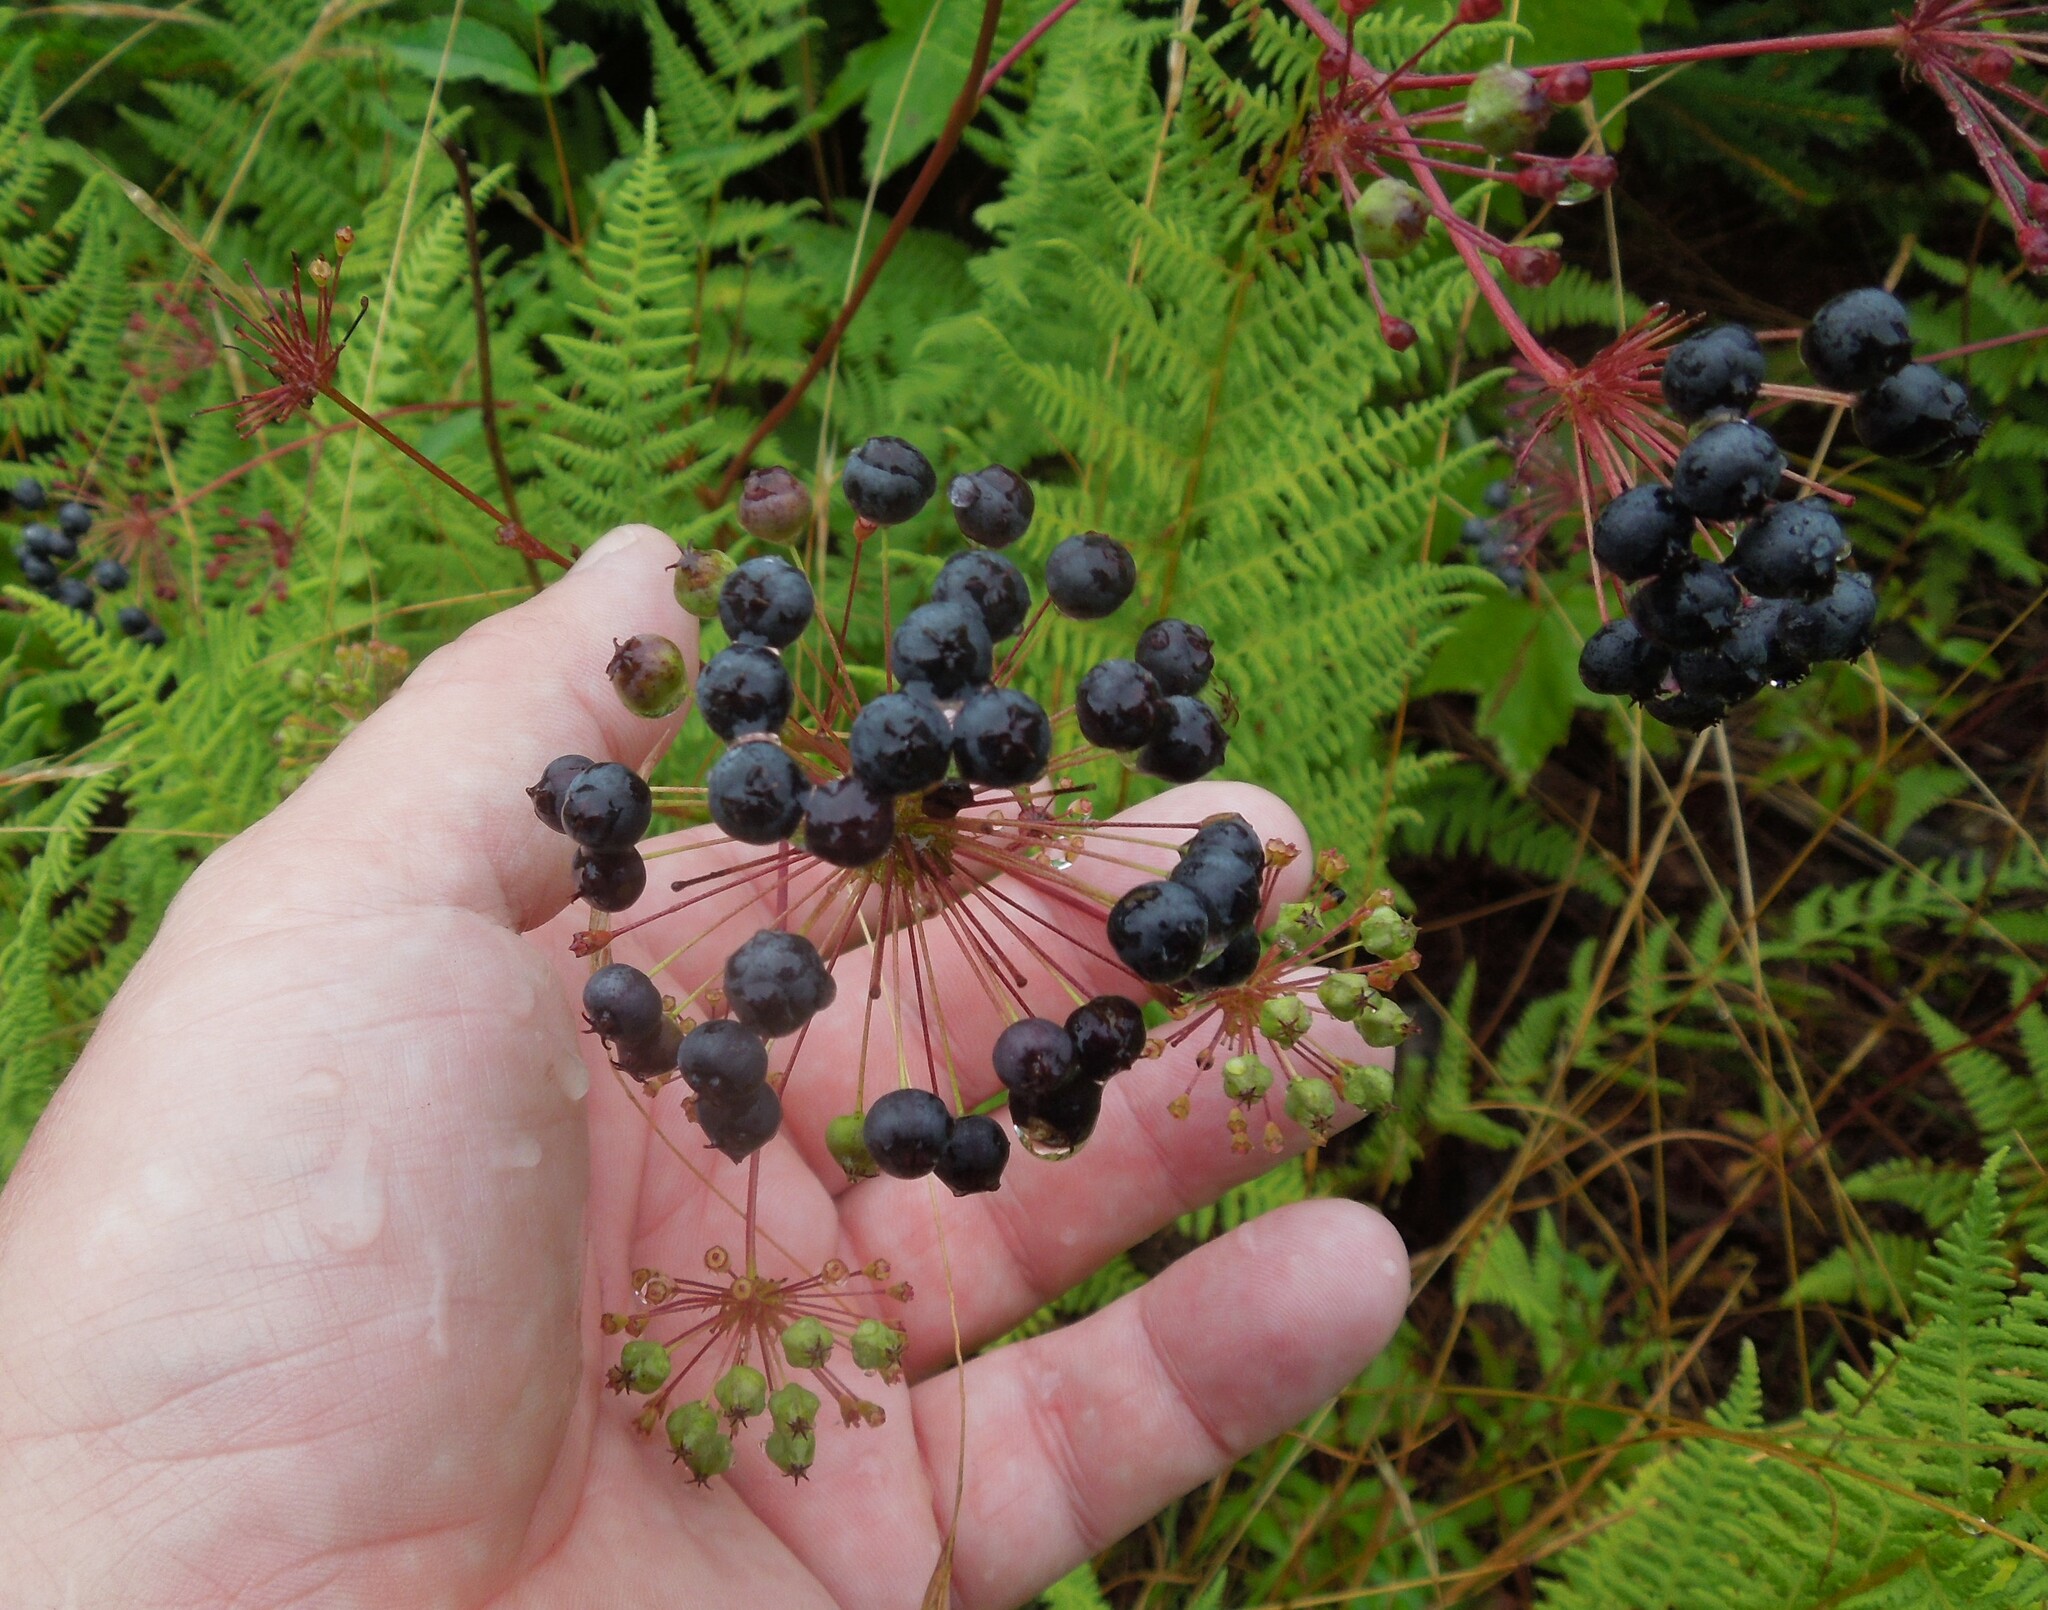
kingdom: Plantae
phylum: Tracheophyta
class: Magnoliopsida
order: Apiales
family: Araliaceae
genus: Aralia
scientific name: Aralia hispida
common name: Bristly sarsaparilla
